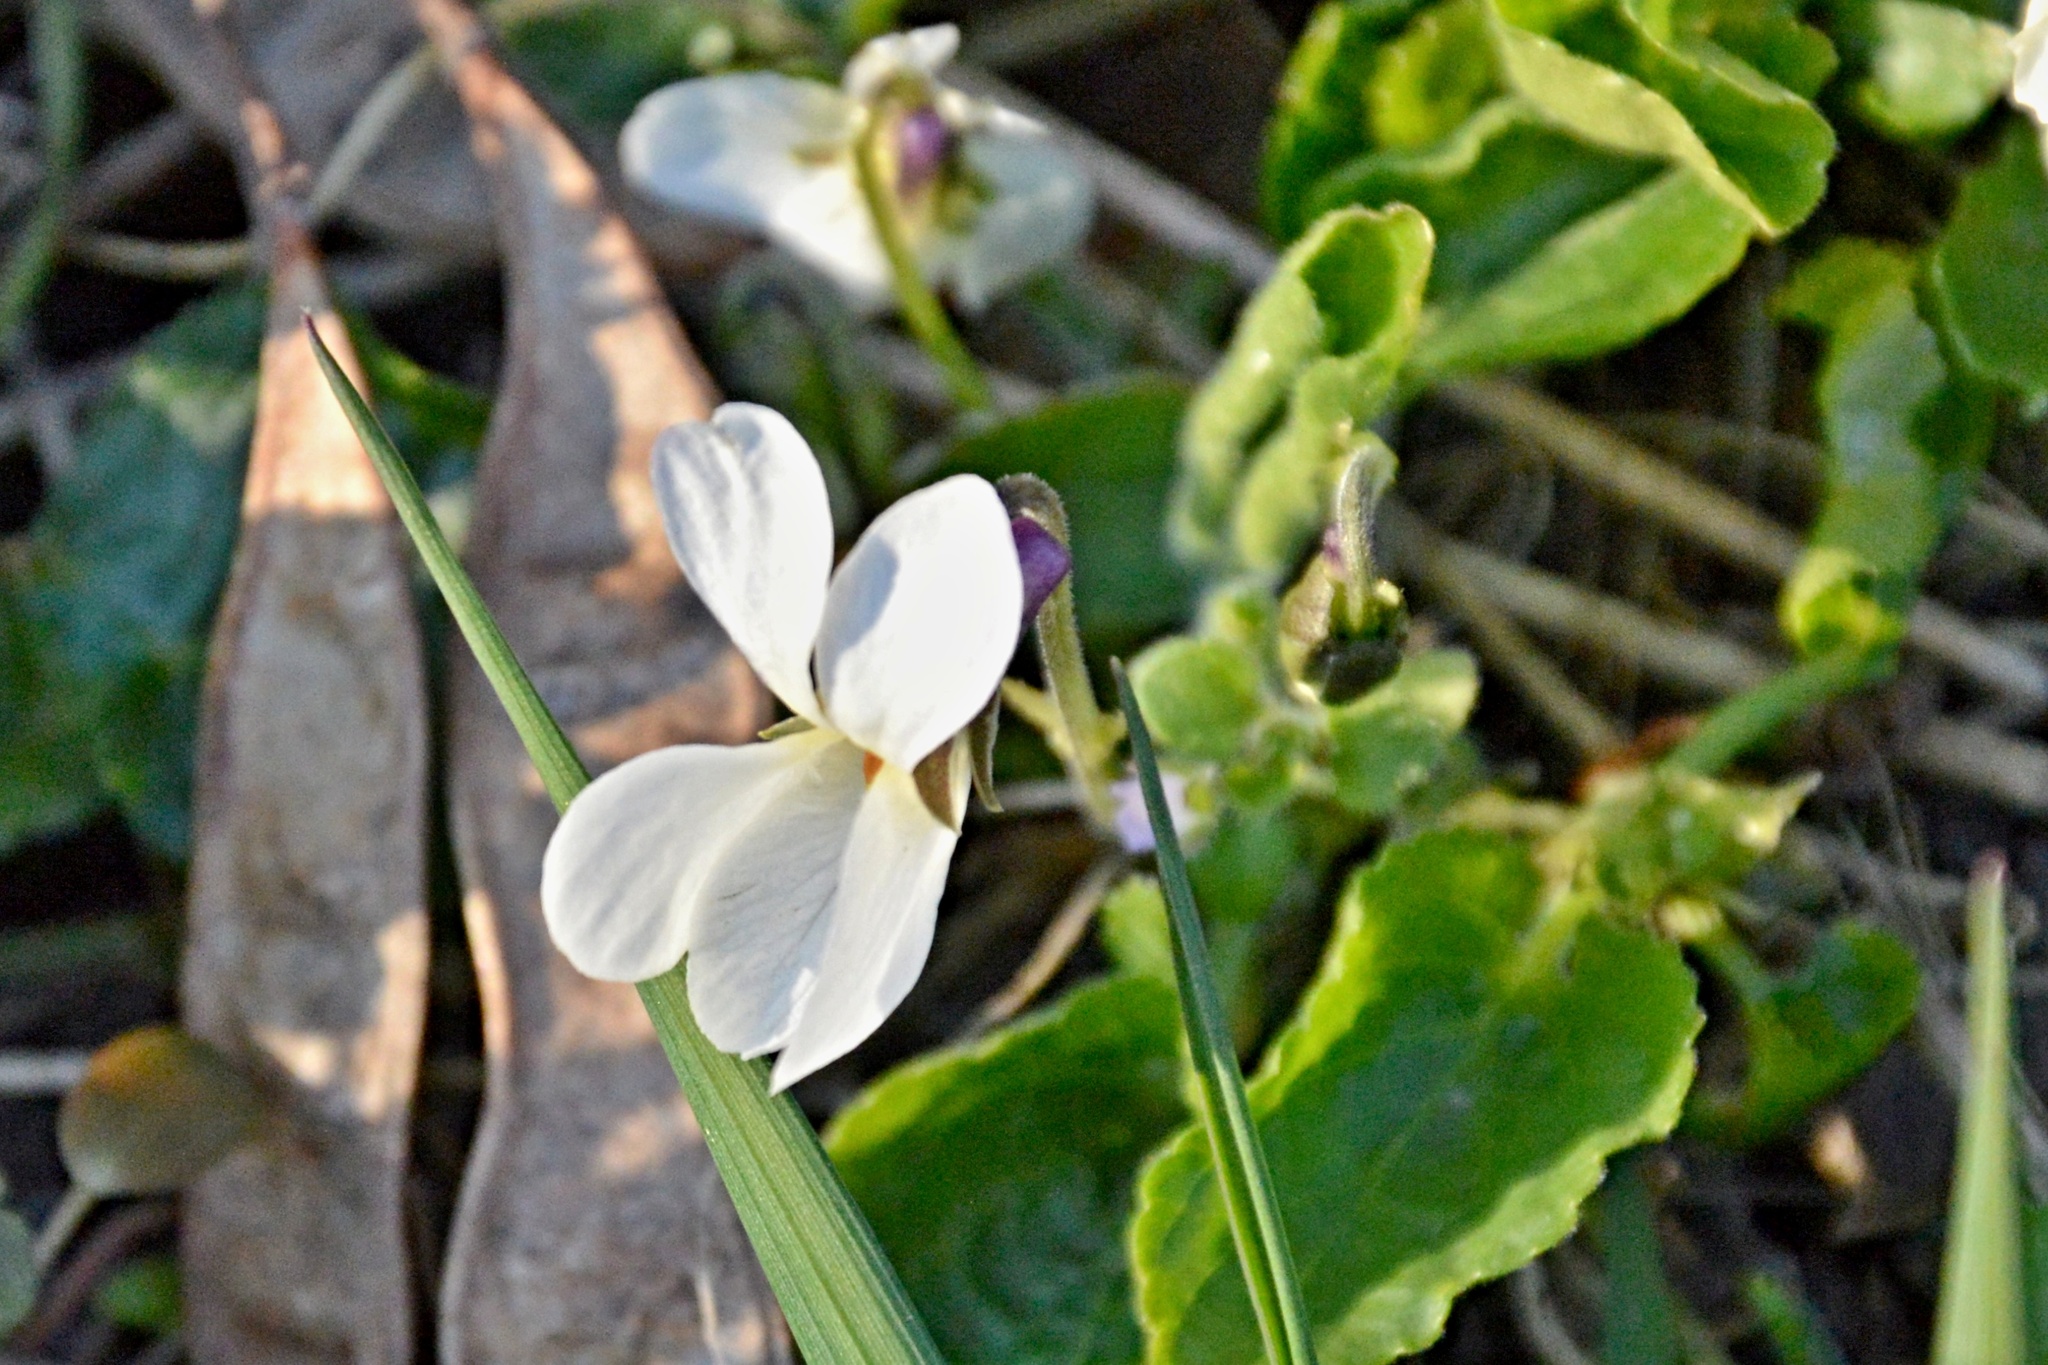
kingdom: Plantae
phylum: Tracheophyta
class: Magnoliopsida
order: Malpighiales
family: Violaceae
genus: Viola
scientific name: Viola odorata
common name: Sweet violet
